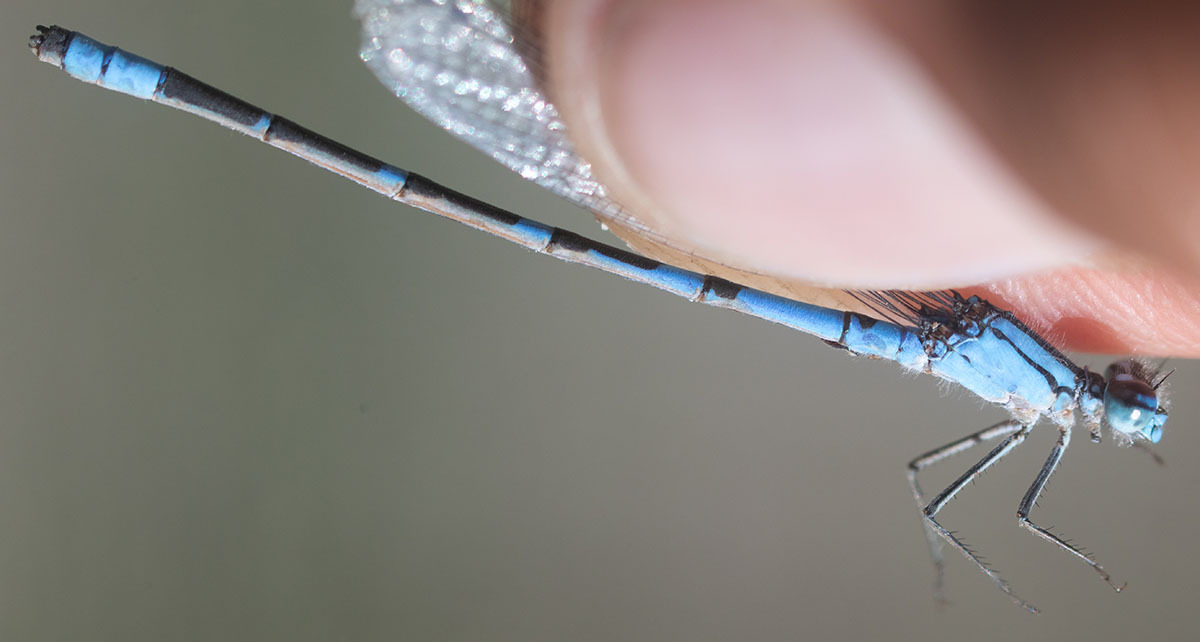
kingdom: Animalia
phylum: Arthropoda
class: Insecta
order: Odonata
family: Coenagrionidae
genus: Enallagma
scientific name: Enallagma praevarum
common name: Arroyo bluet
